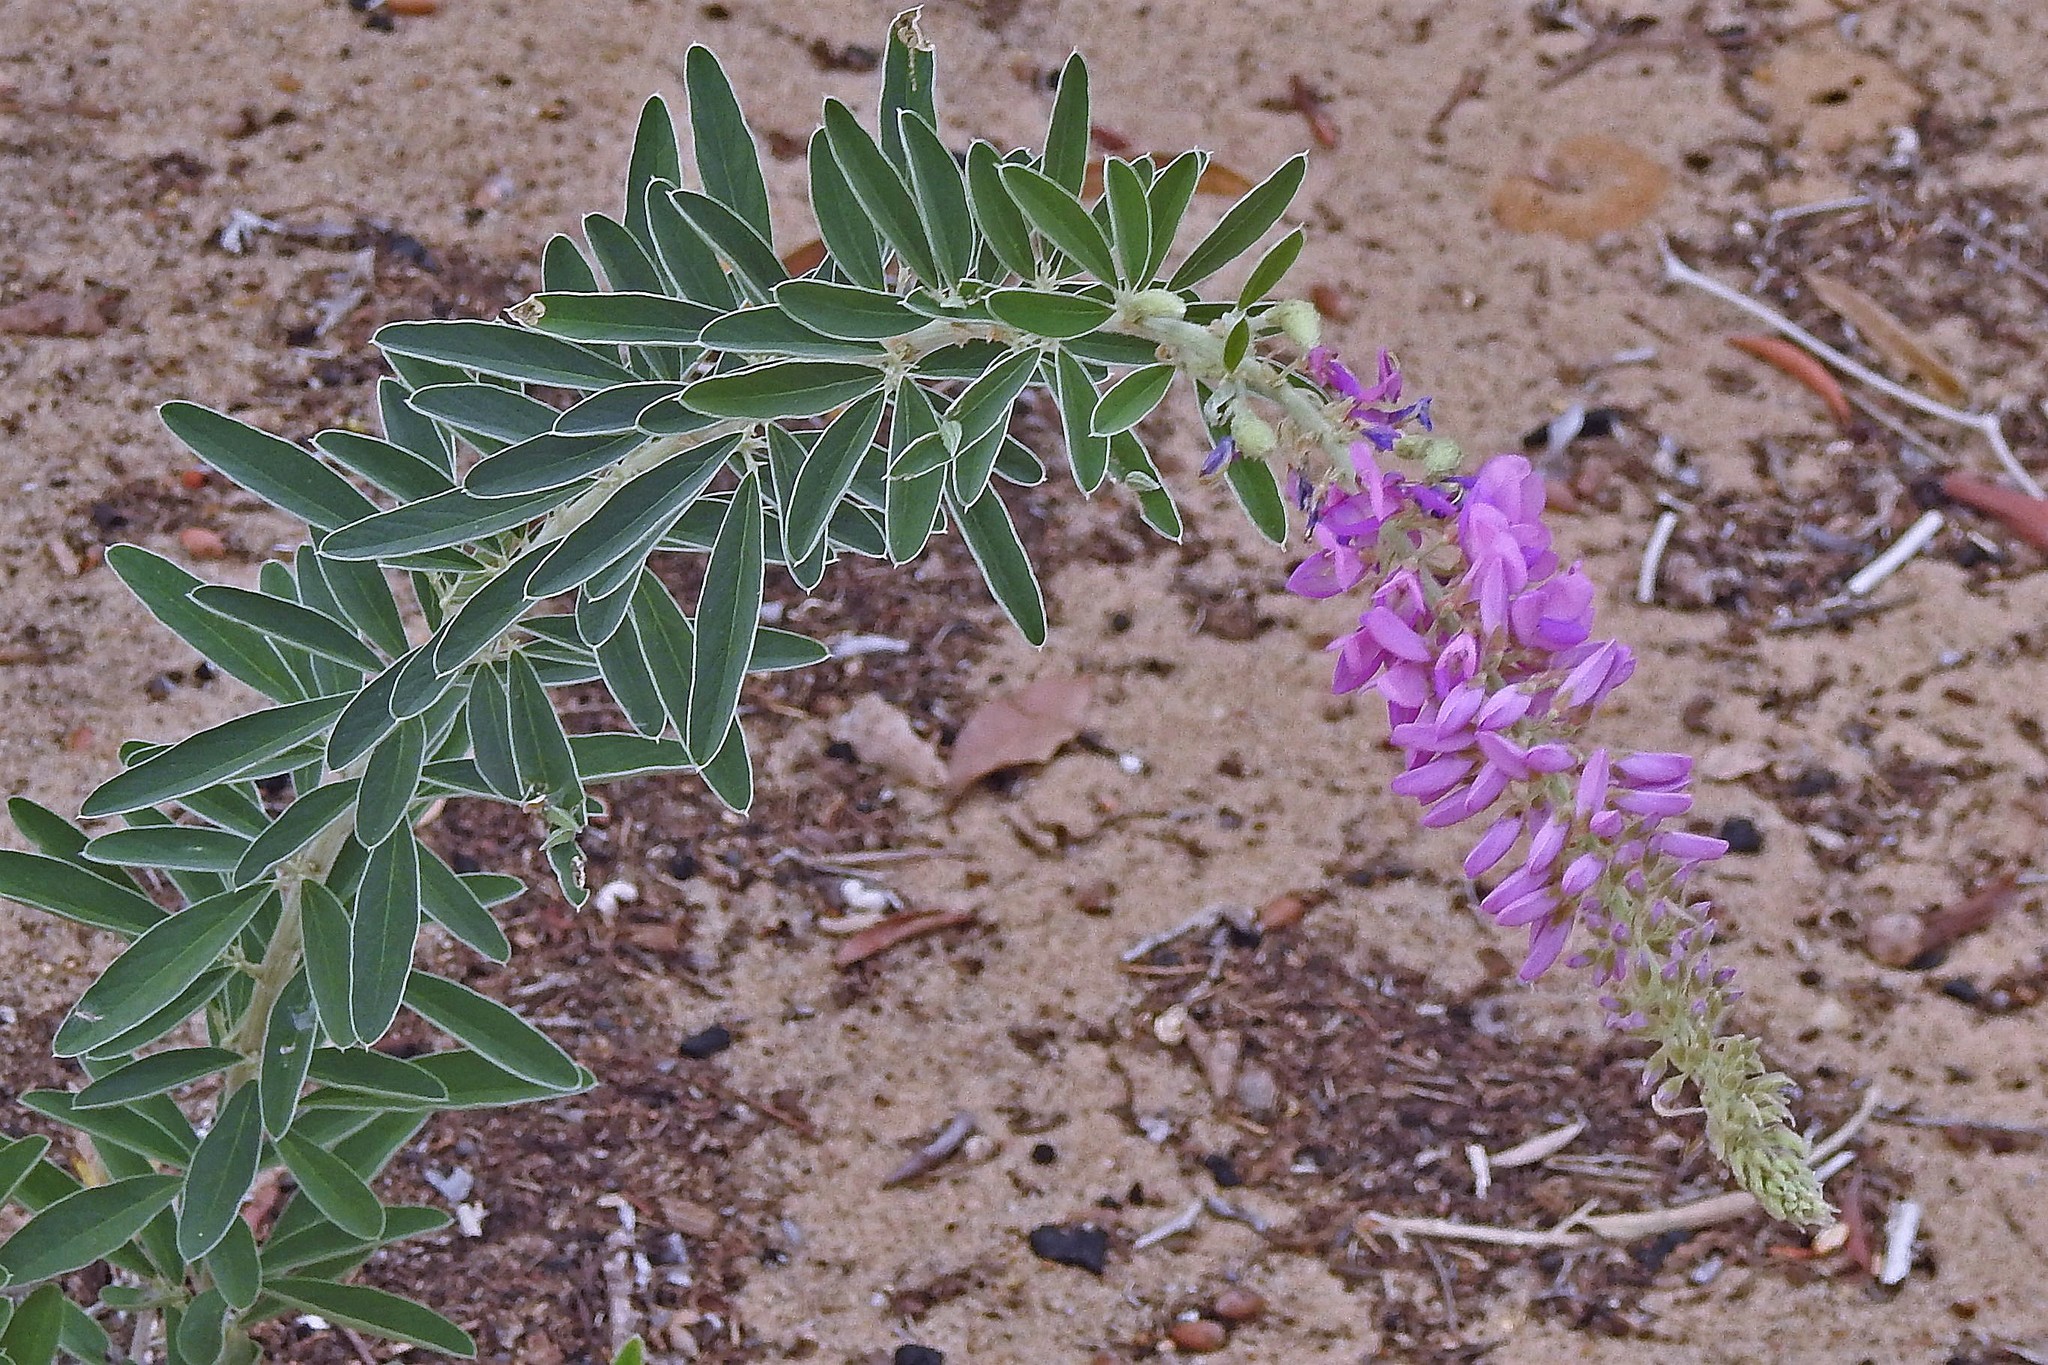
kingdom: Plantae
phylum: Tracheophyta
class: Magnoliopsida
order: Fabales
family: Fabaceae
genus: Desmodium
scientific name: Desmodium cuneatum
